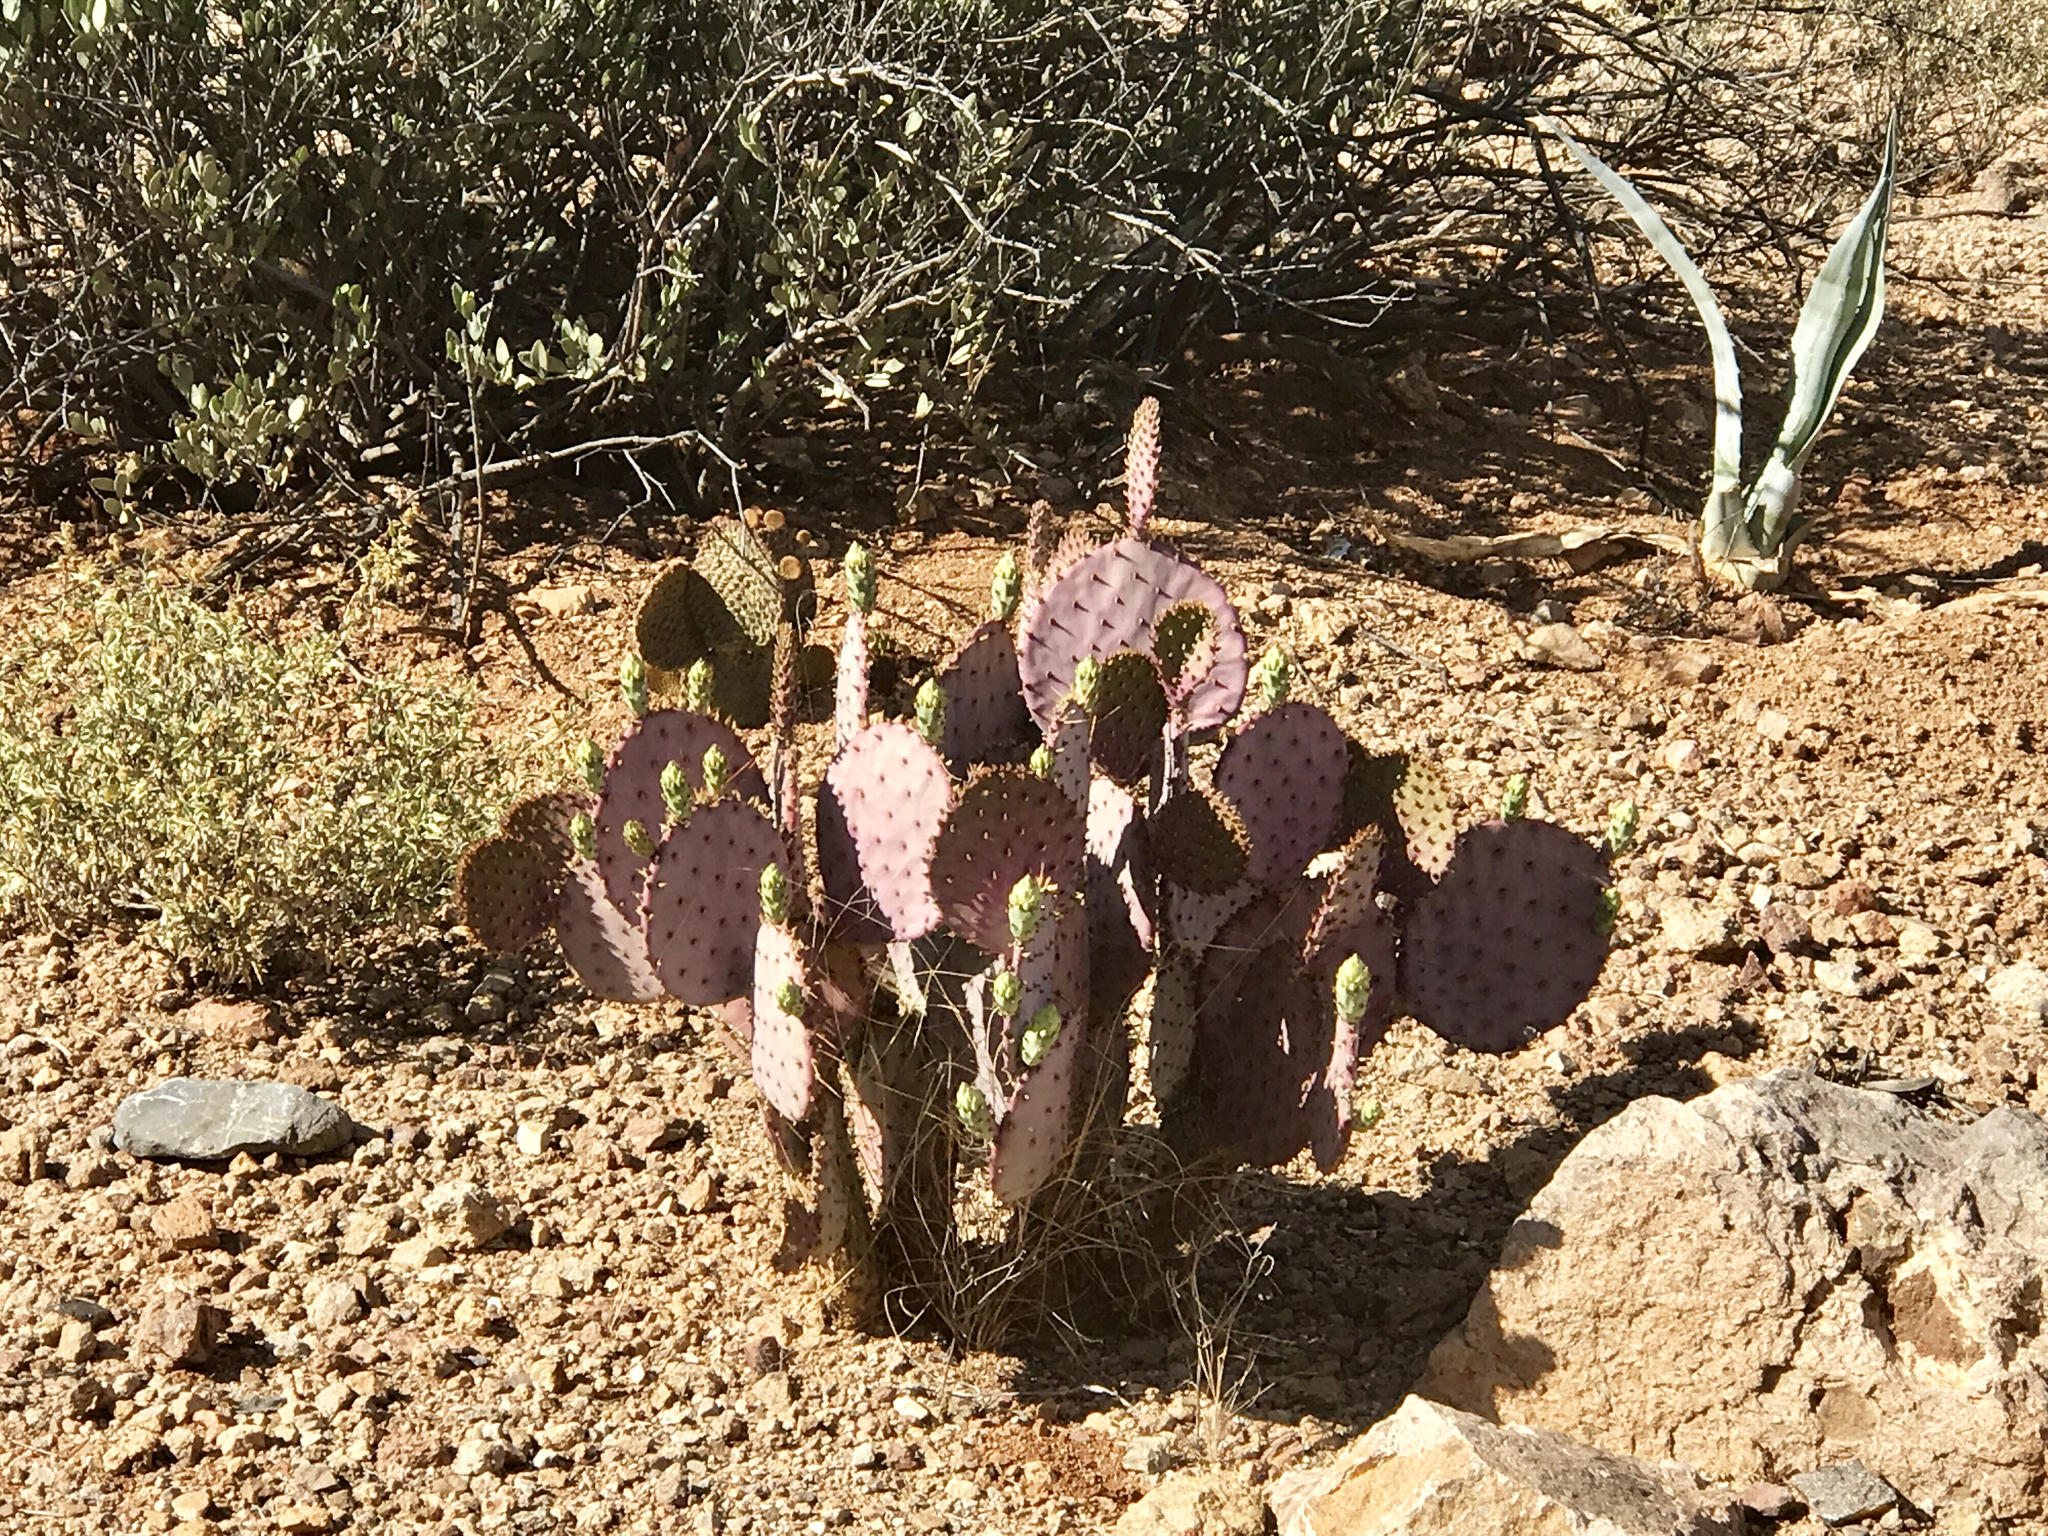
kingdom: Plantae
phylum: Tracheophyta
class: Magnoliopsida
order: Caryophyllales
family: Cactaceae
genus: Opuntia
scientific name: Opuntia gosseliniana
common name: Violet prickly-pear
